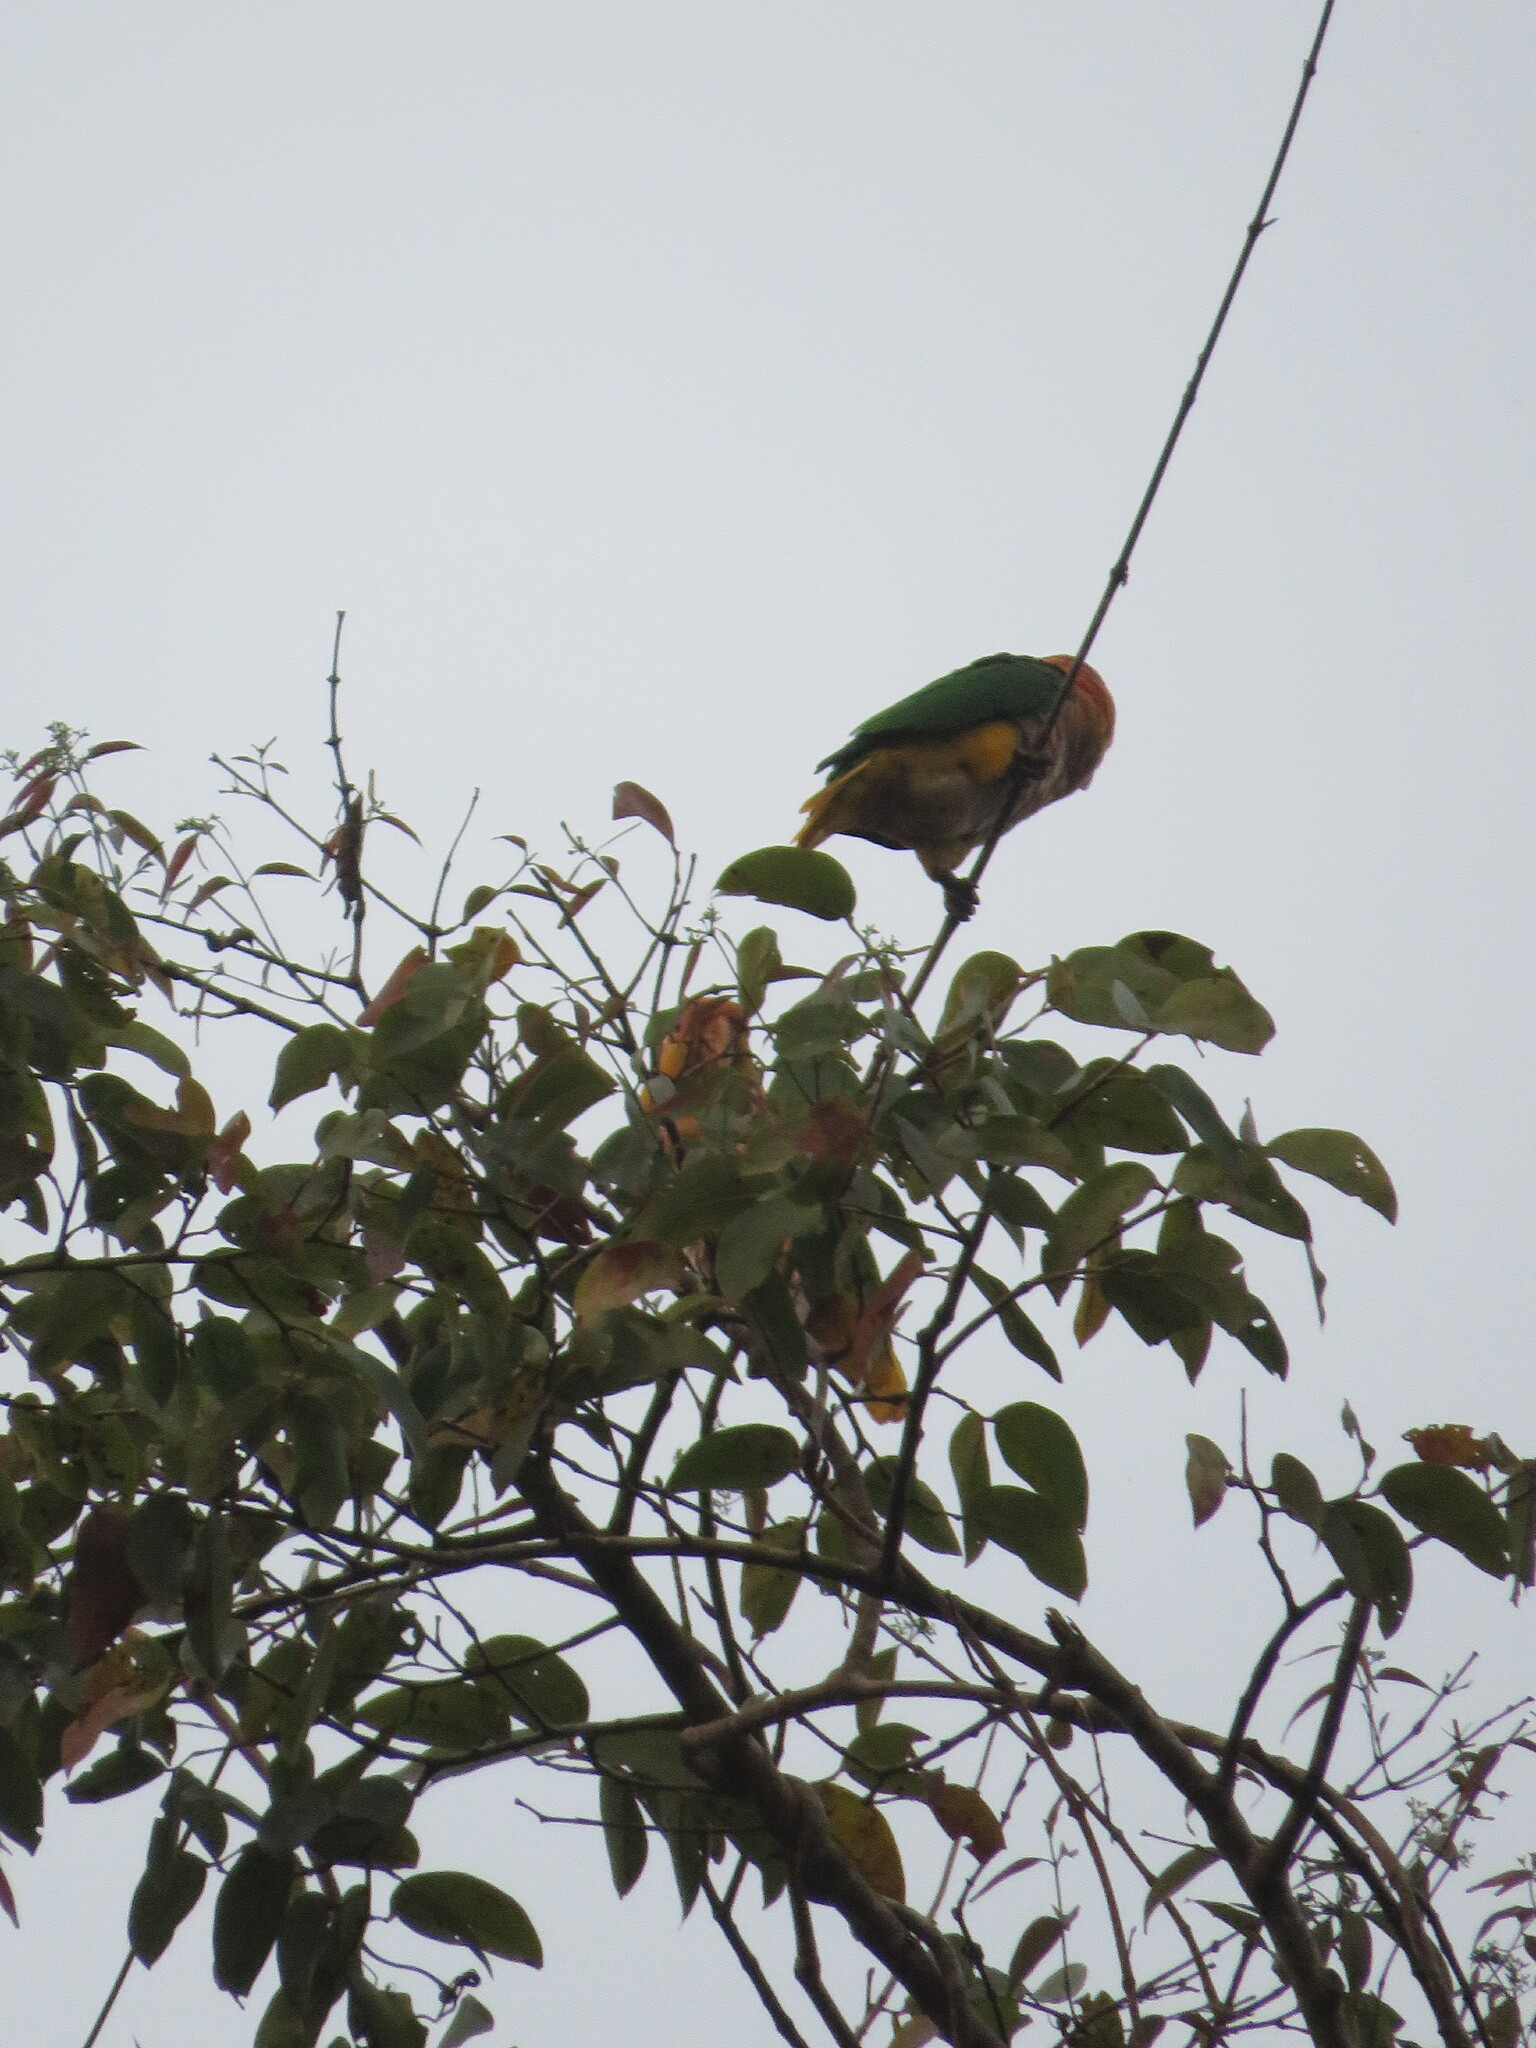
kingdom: Animalia
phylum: Chordata
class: Aves
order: Psittaciformes
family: Psittacidae
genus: Pionites
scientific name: Pionites leucogaster
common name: White-bellied parrot
